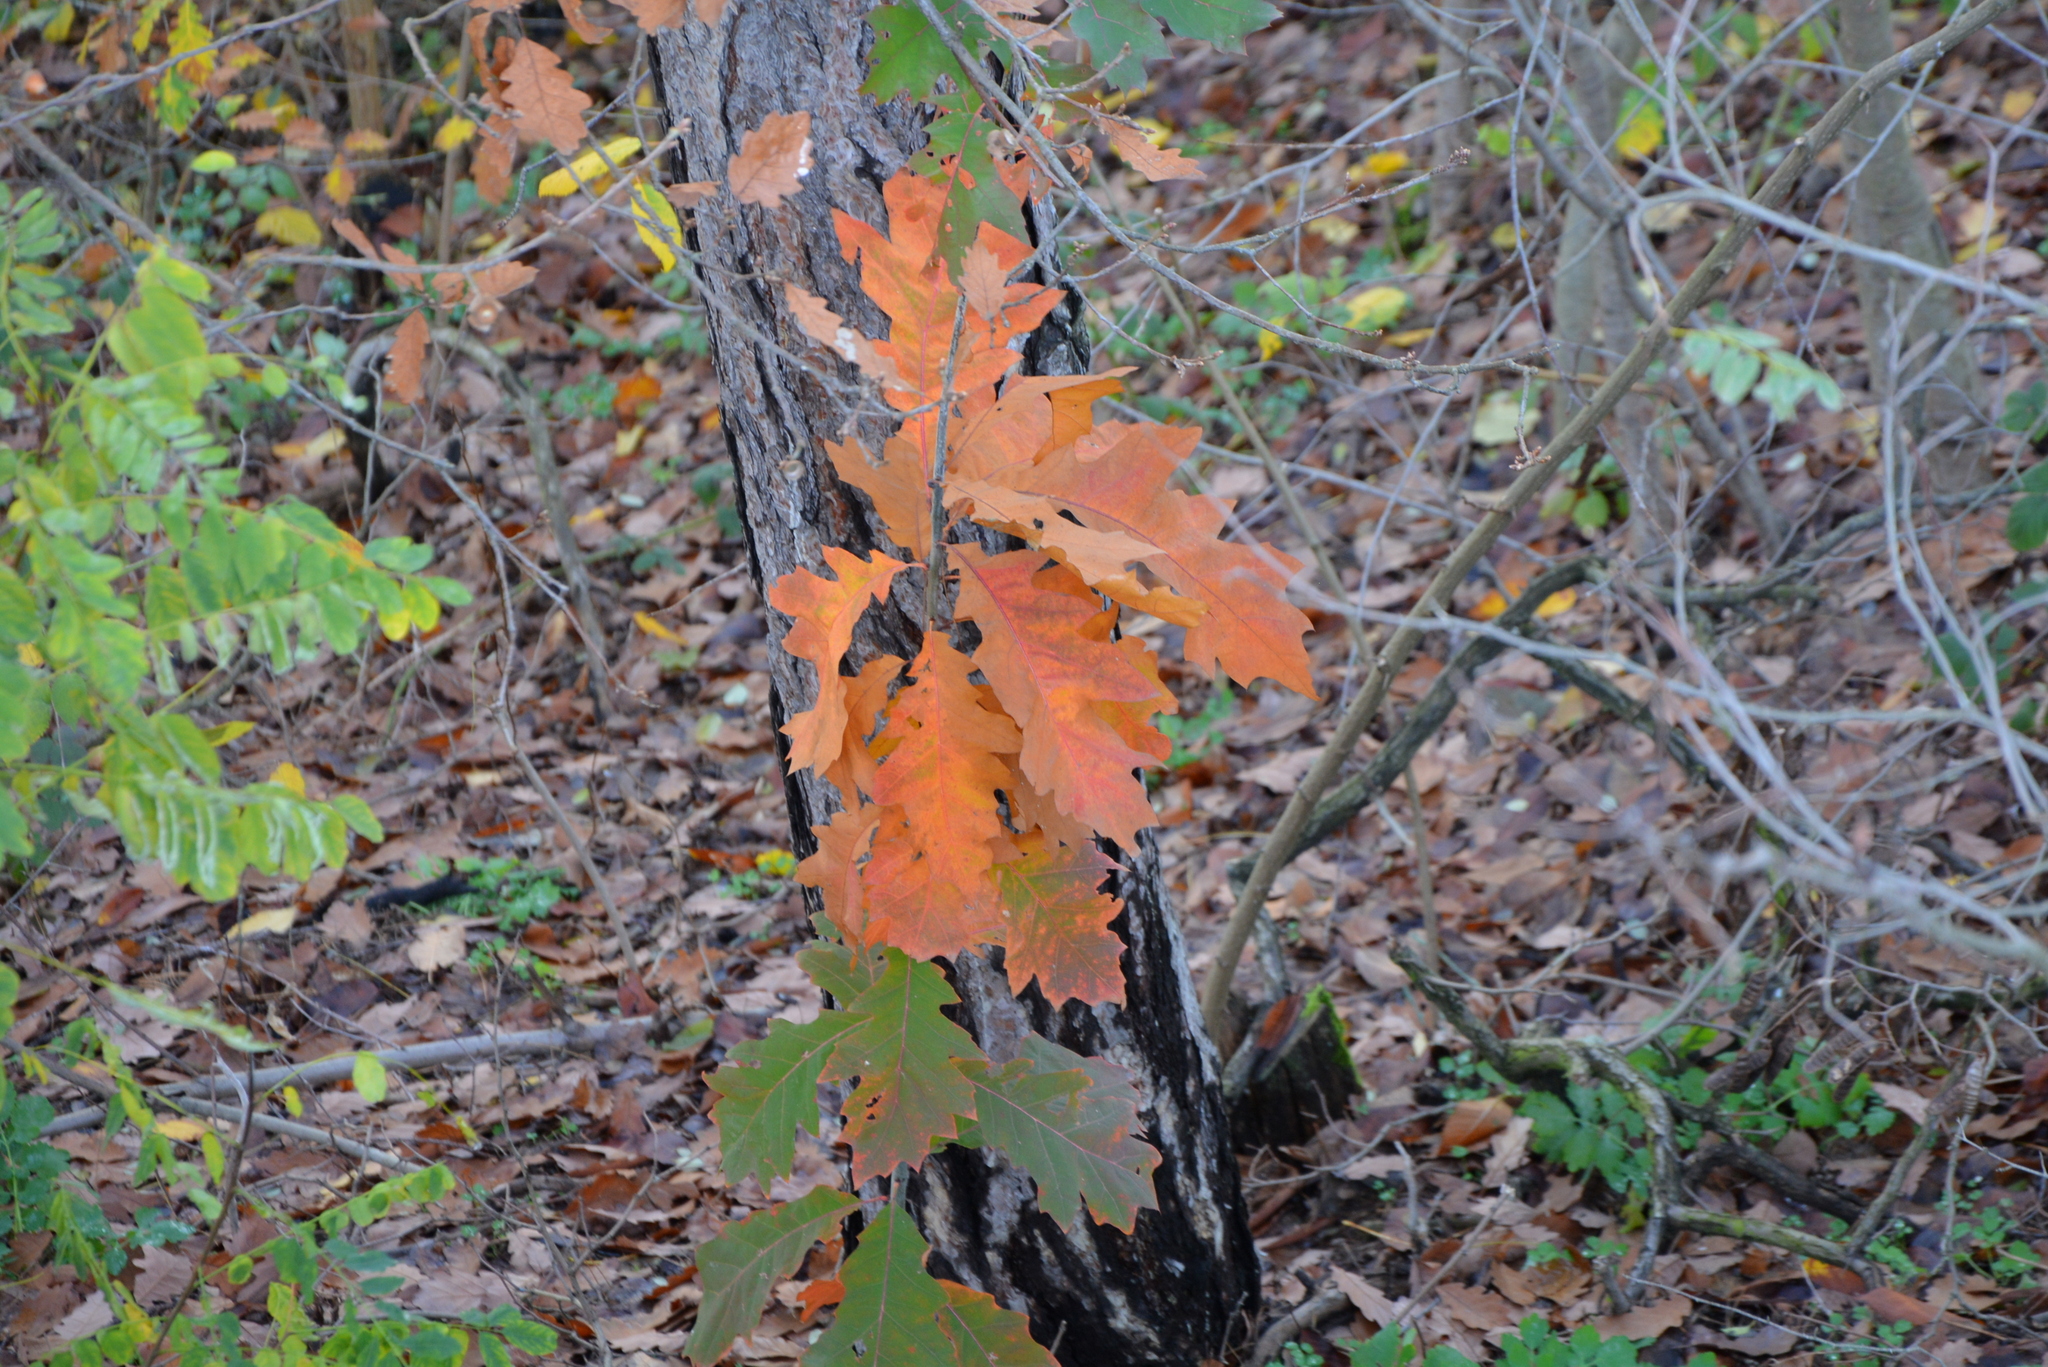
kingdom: Plantae
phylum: Tracheophyta
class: Magnoliopsida
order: Fagales
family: Fagaceae
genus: Quercus
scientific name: Quercus rubra
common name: Red oak
